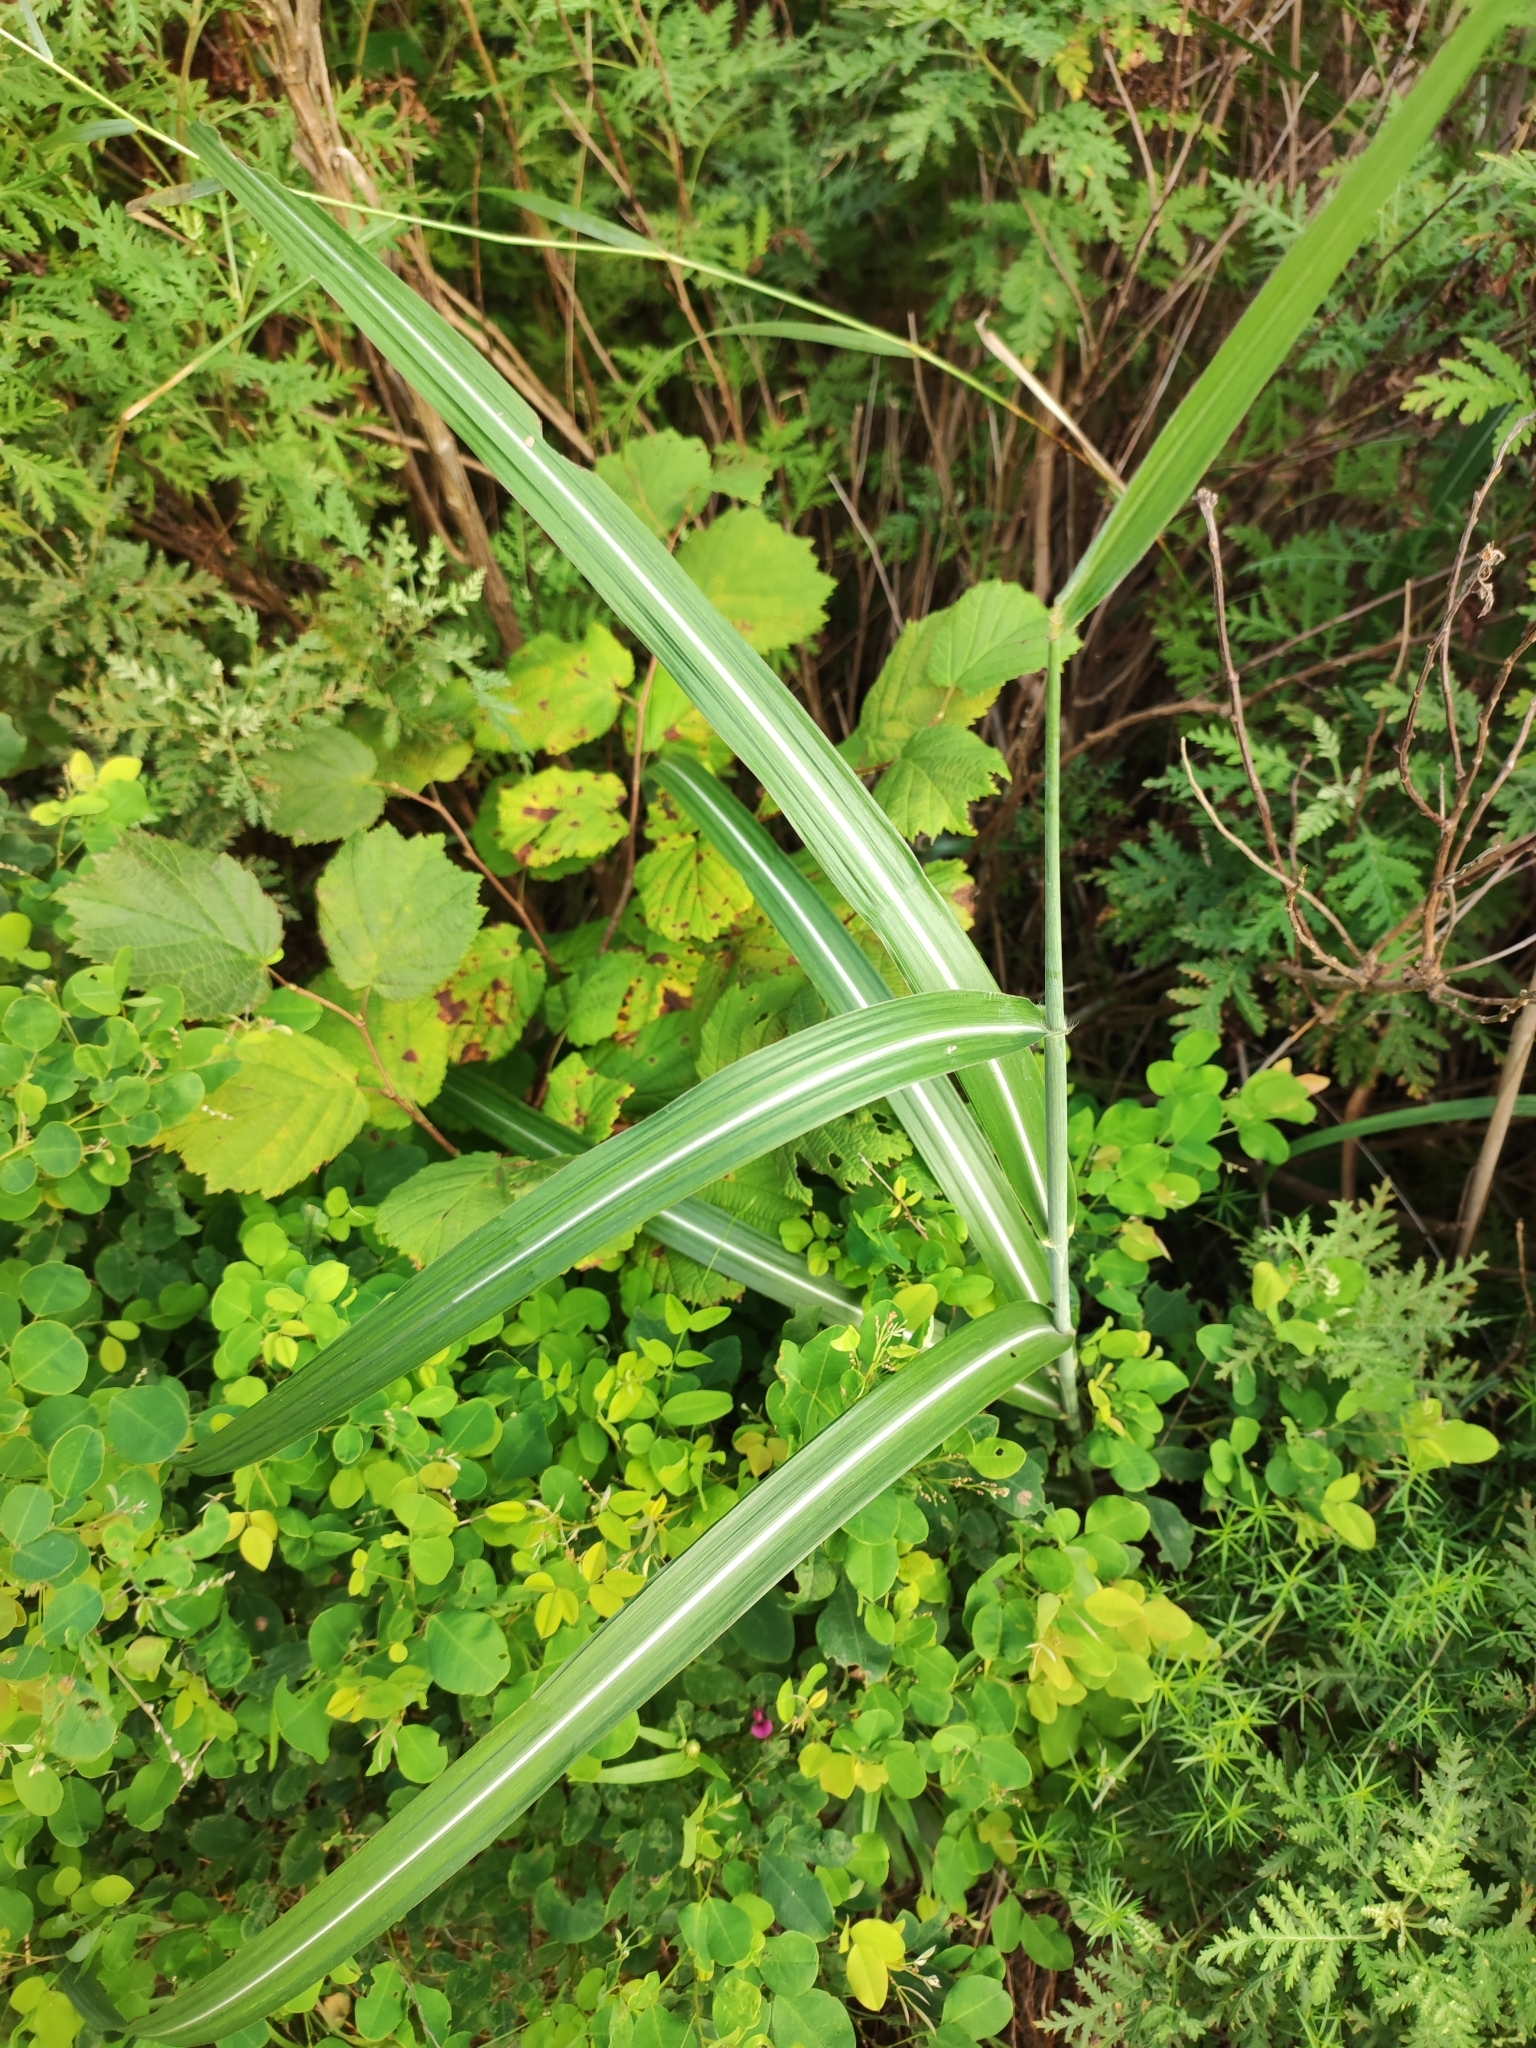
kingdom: Plantae
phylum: Tracheophyta
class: Liliopsida
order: Poales
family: Poaceae
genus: Miscanthus
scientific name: Miscanthus sinensis
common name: Chinese silvergrass
